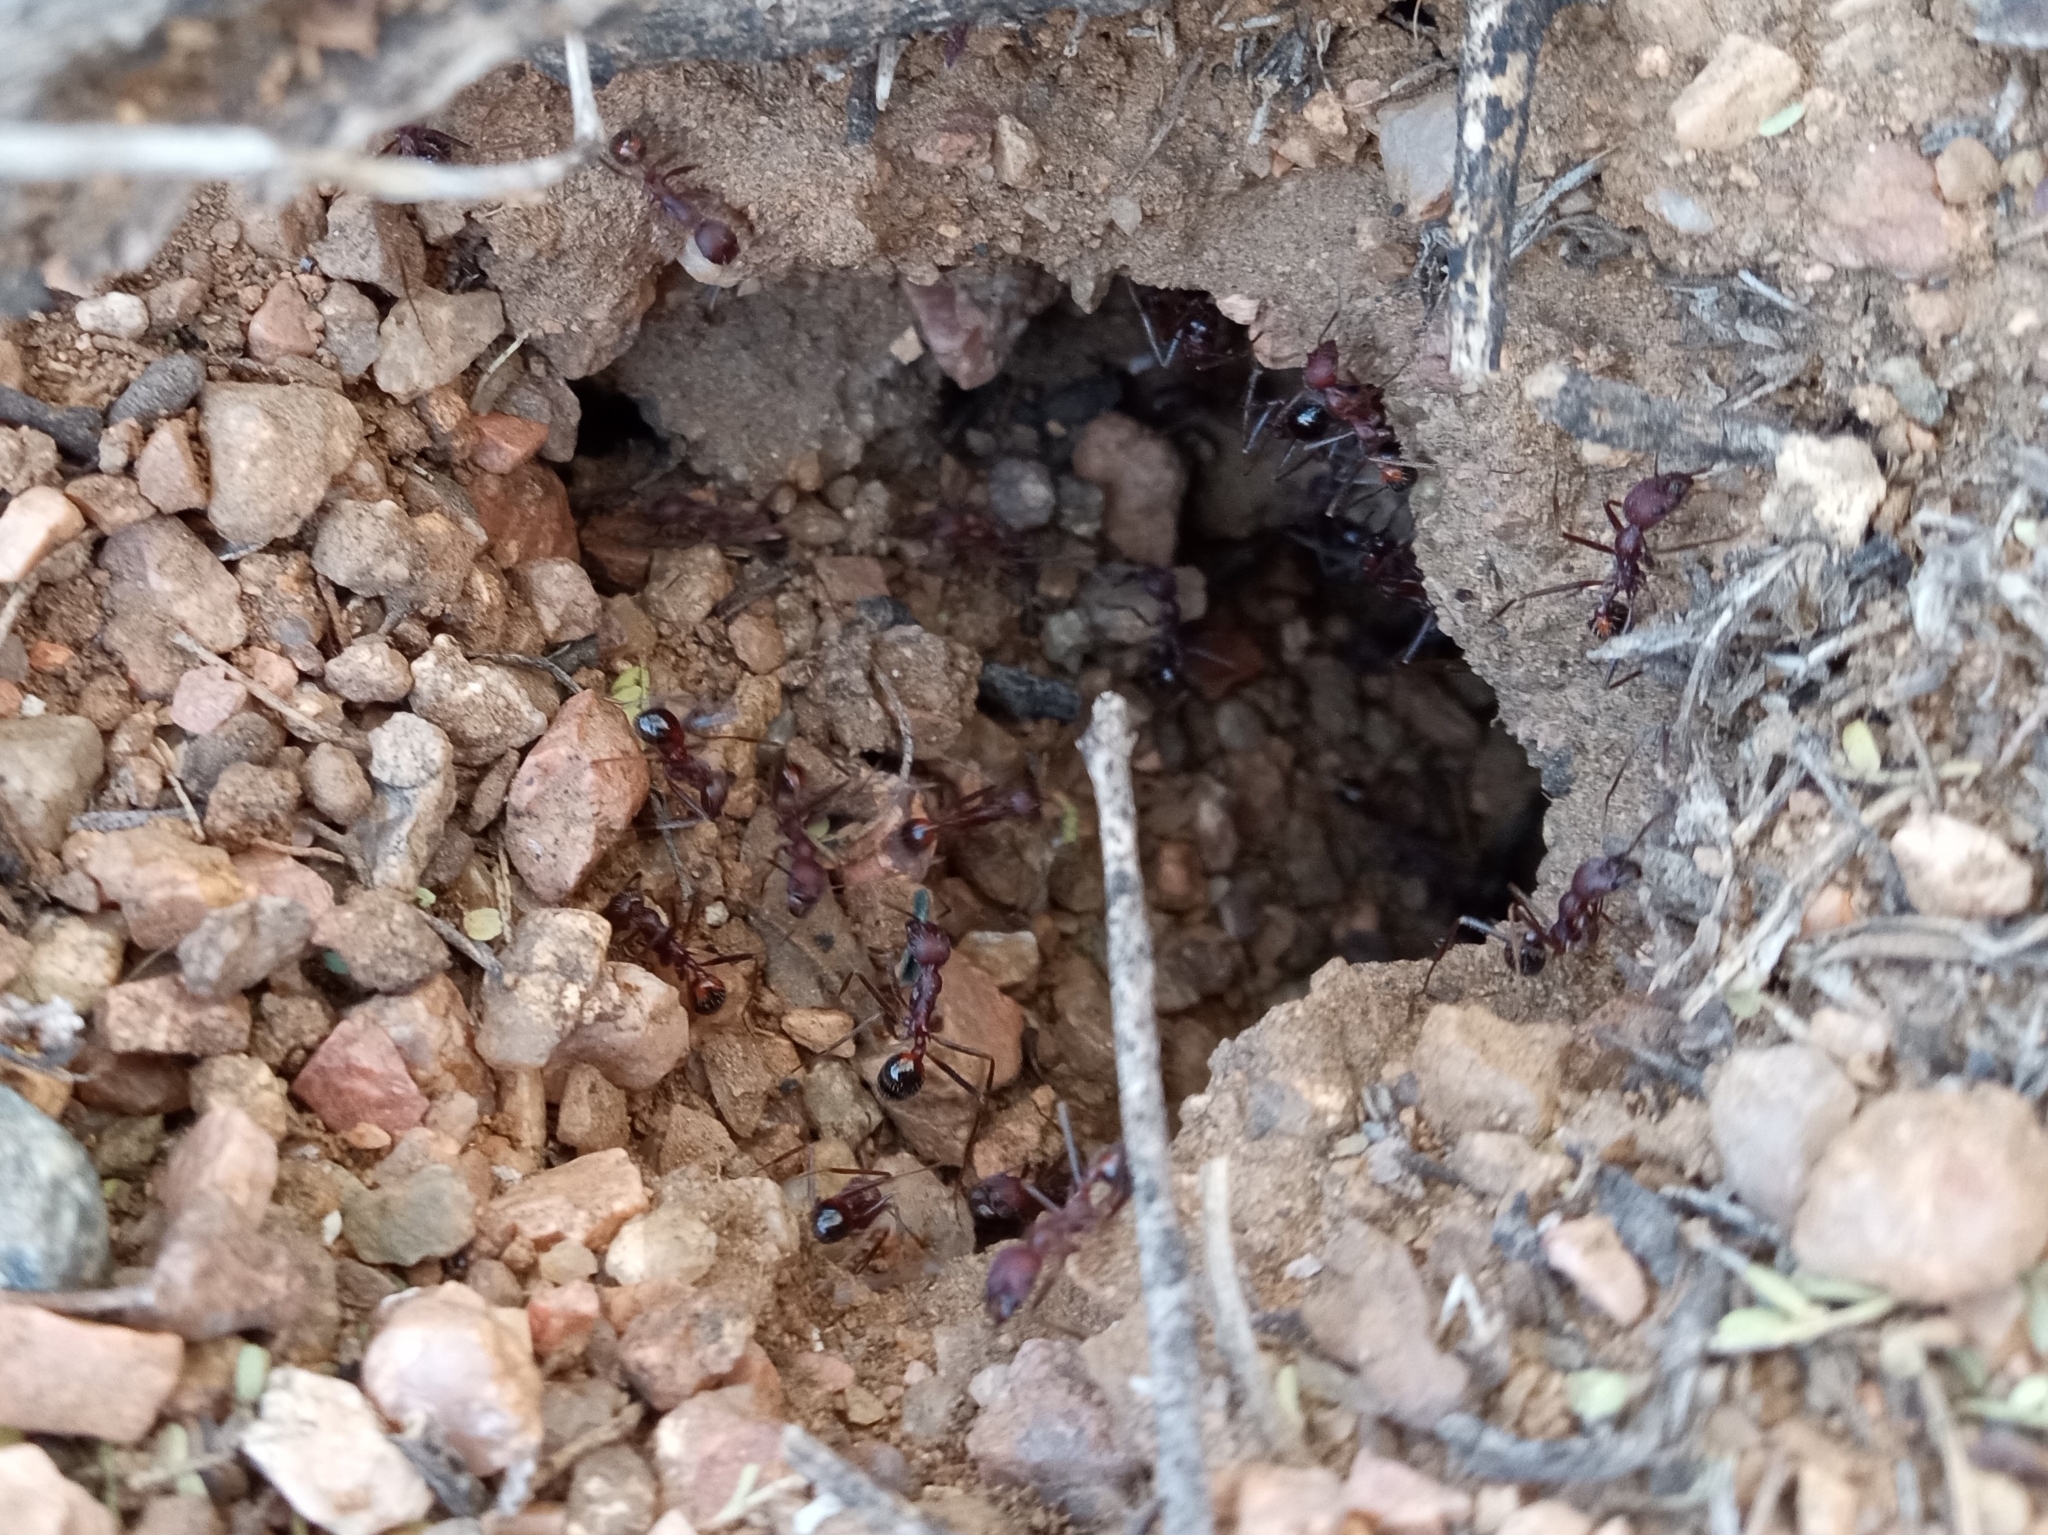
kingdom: Animalia
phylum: Arthropoda
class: Insecta
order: Hymenoptera
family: Formicidae
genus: Novomessor
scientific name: Novomessor albisetosa
